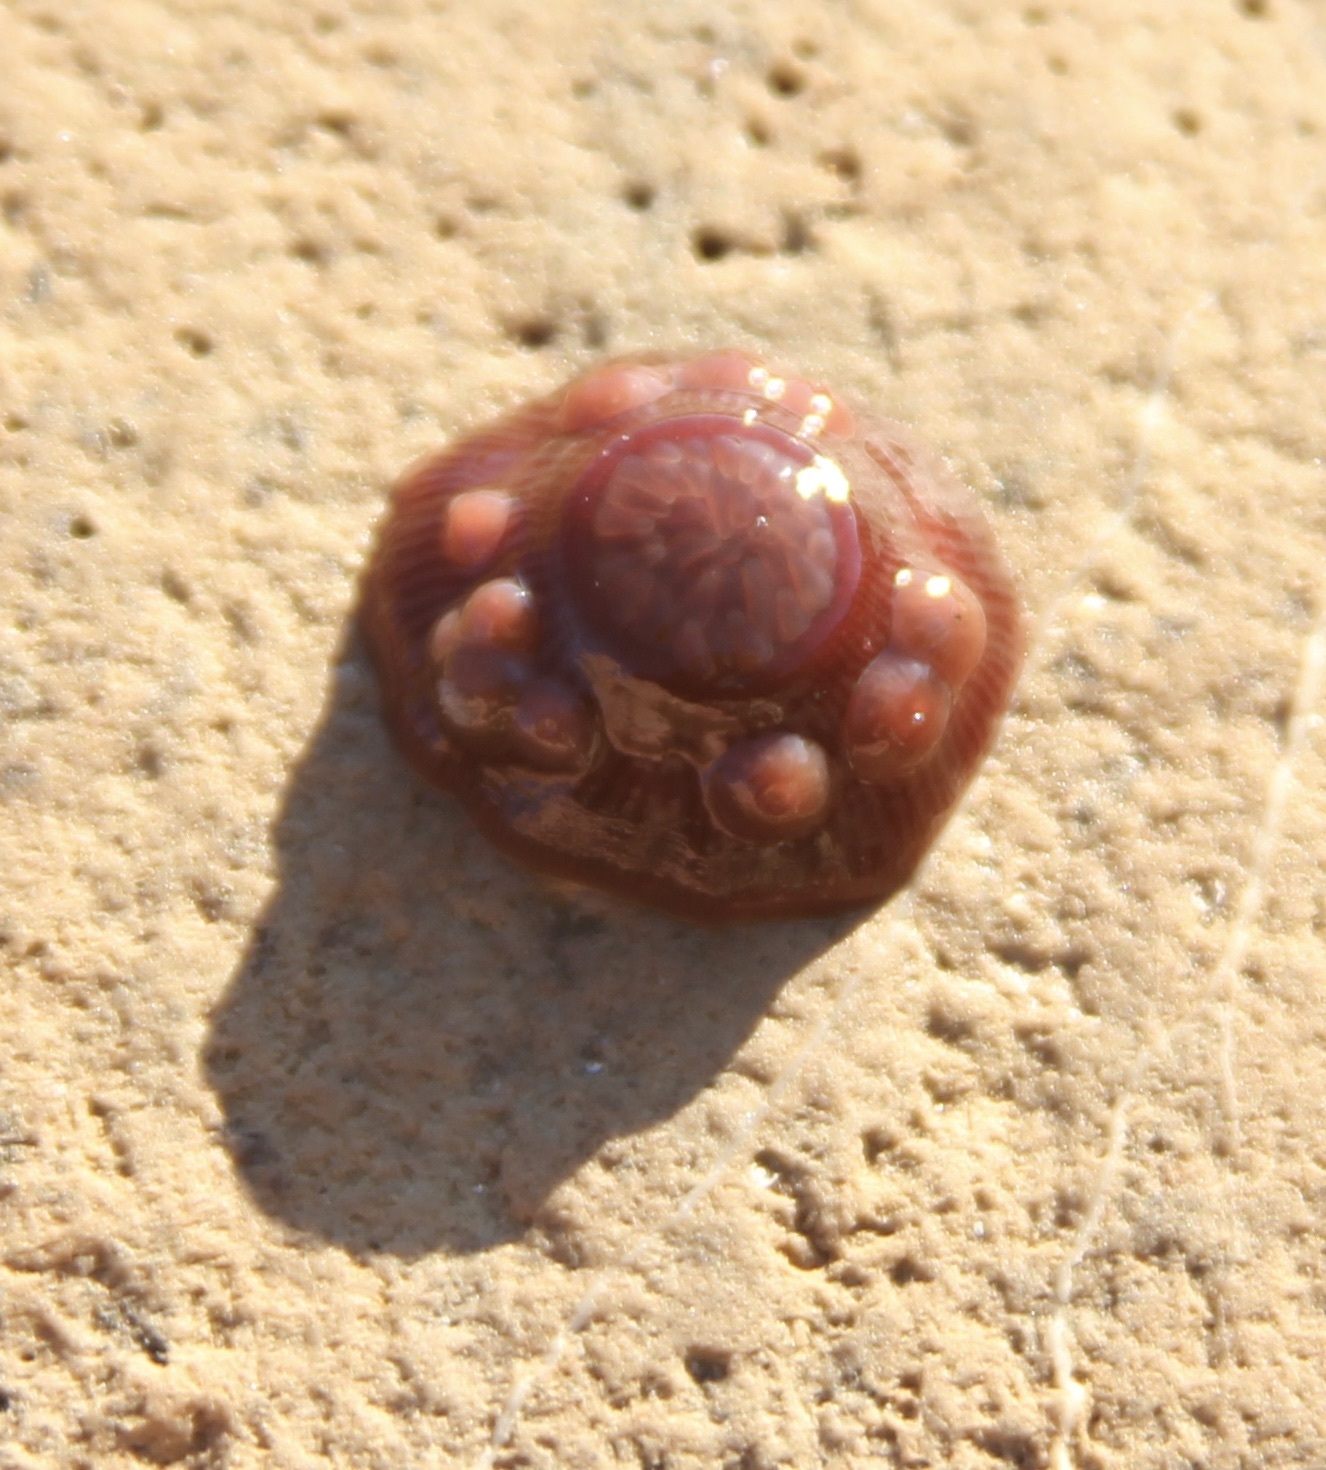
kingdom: Animalia
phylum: Cnidaria
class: Anthozoa
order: Actiniaria
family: Actiniidae
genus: Epiactis
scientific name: Epiactis prolifera
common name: Brooding anemone
